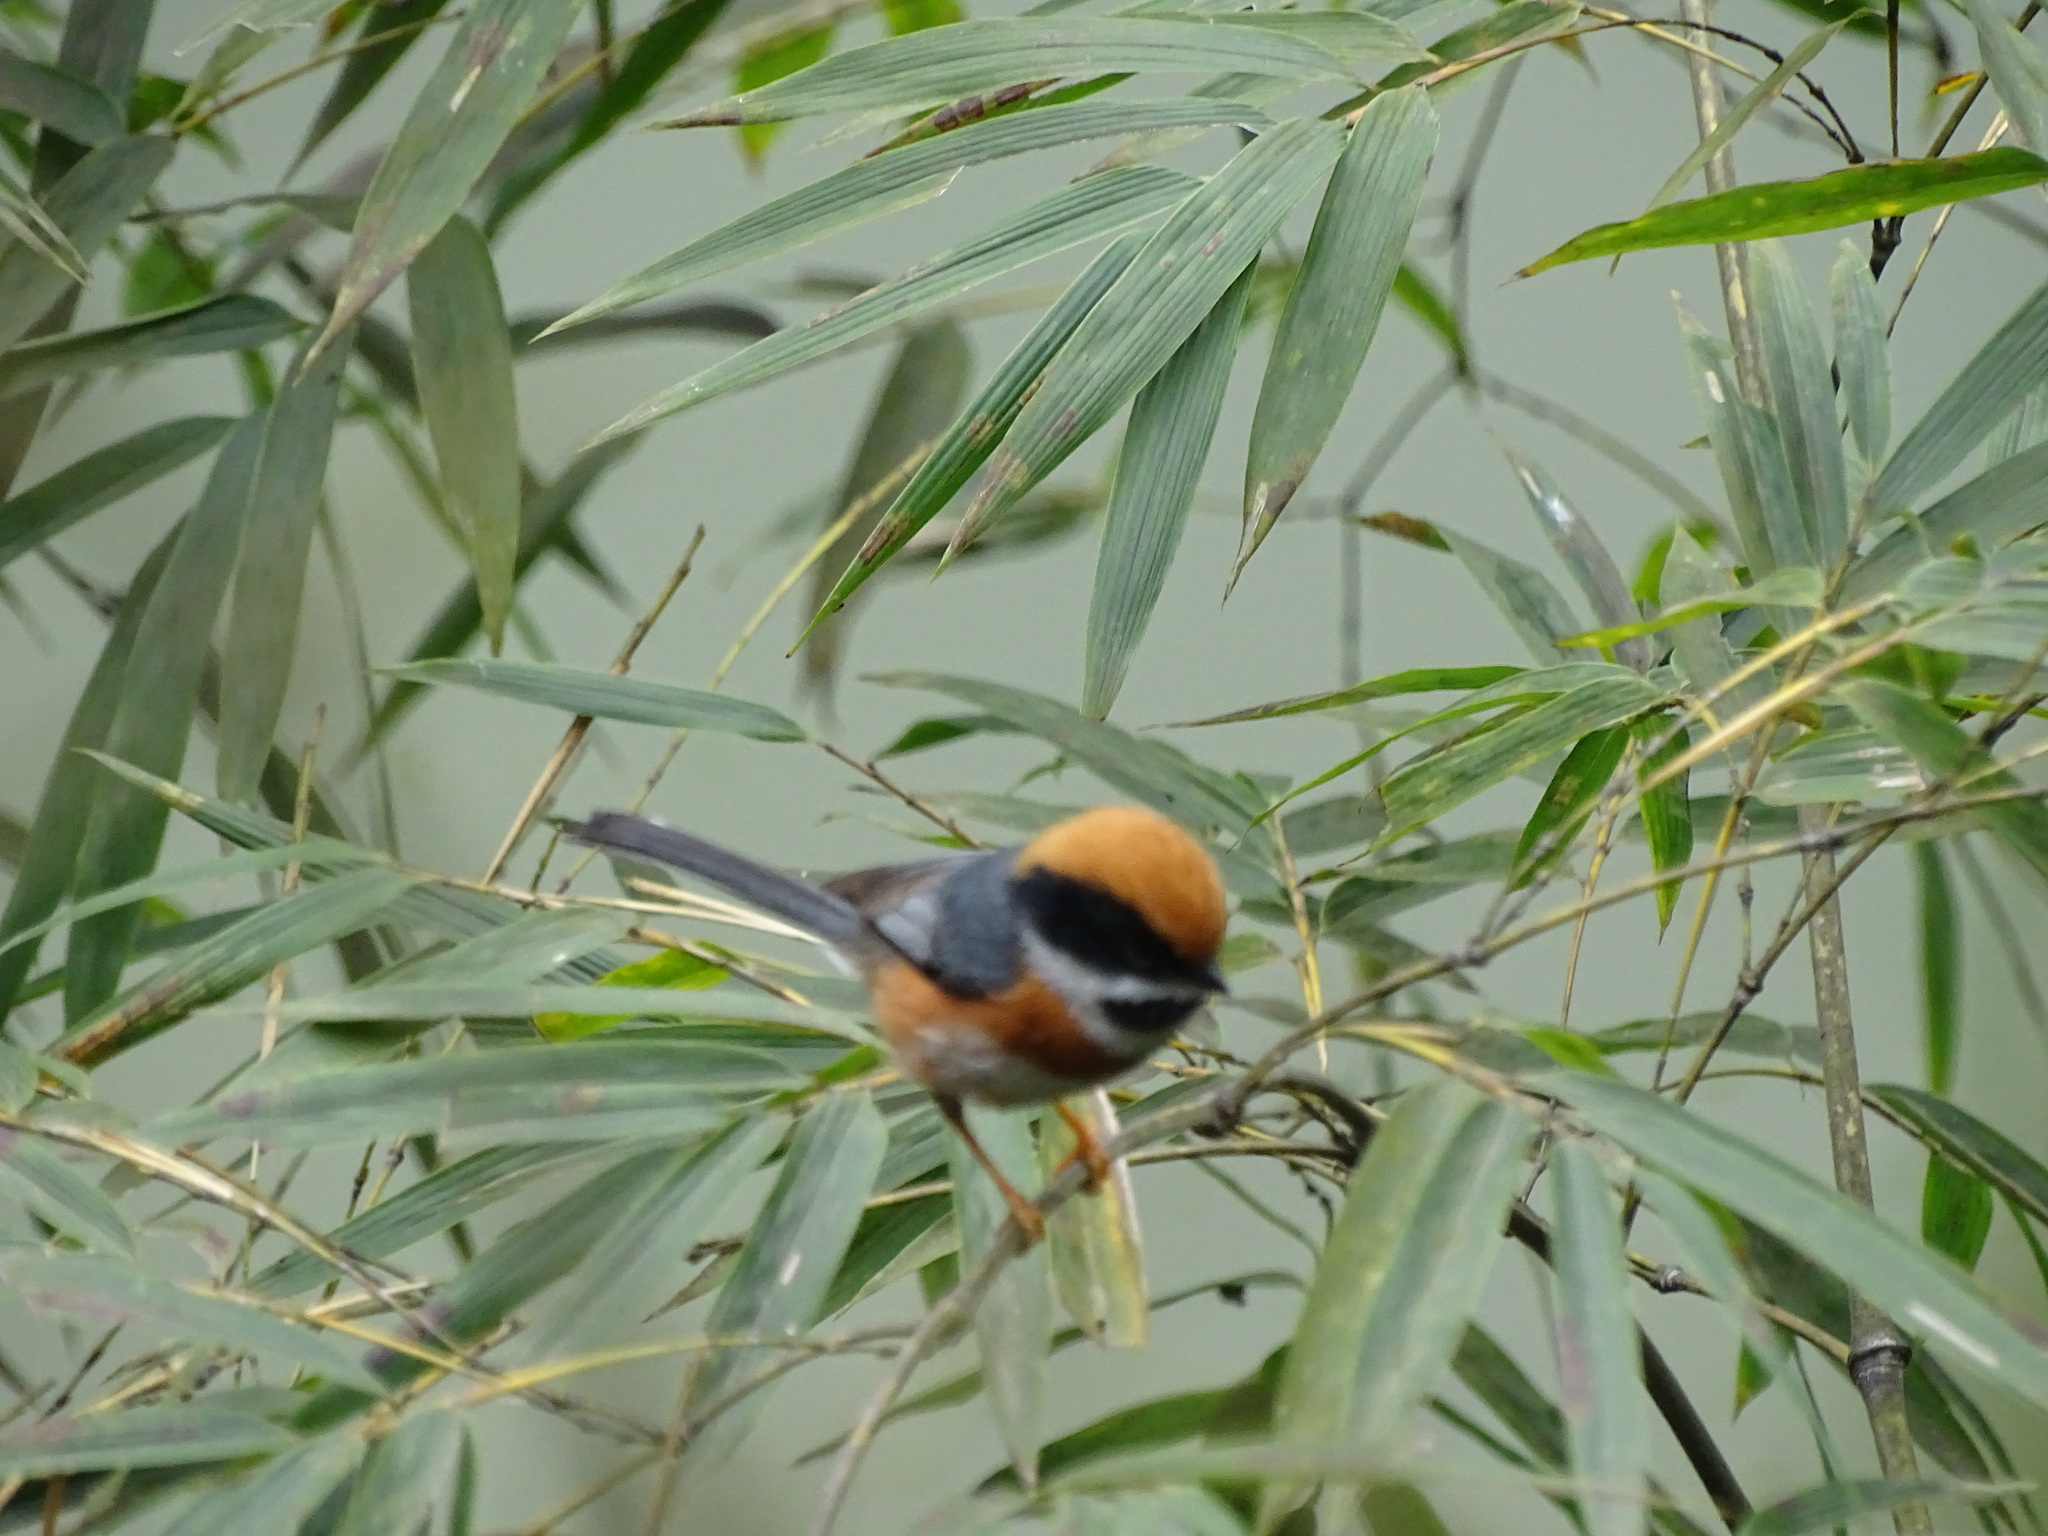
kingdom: Animalia
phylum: Chordata
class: Aves
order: Passeriformes
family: Aegithalidae
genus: Aegithalos
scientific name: Aegithalos concinnus
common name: Black-throated bushtit
